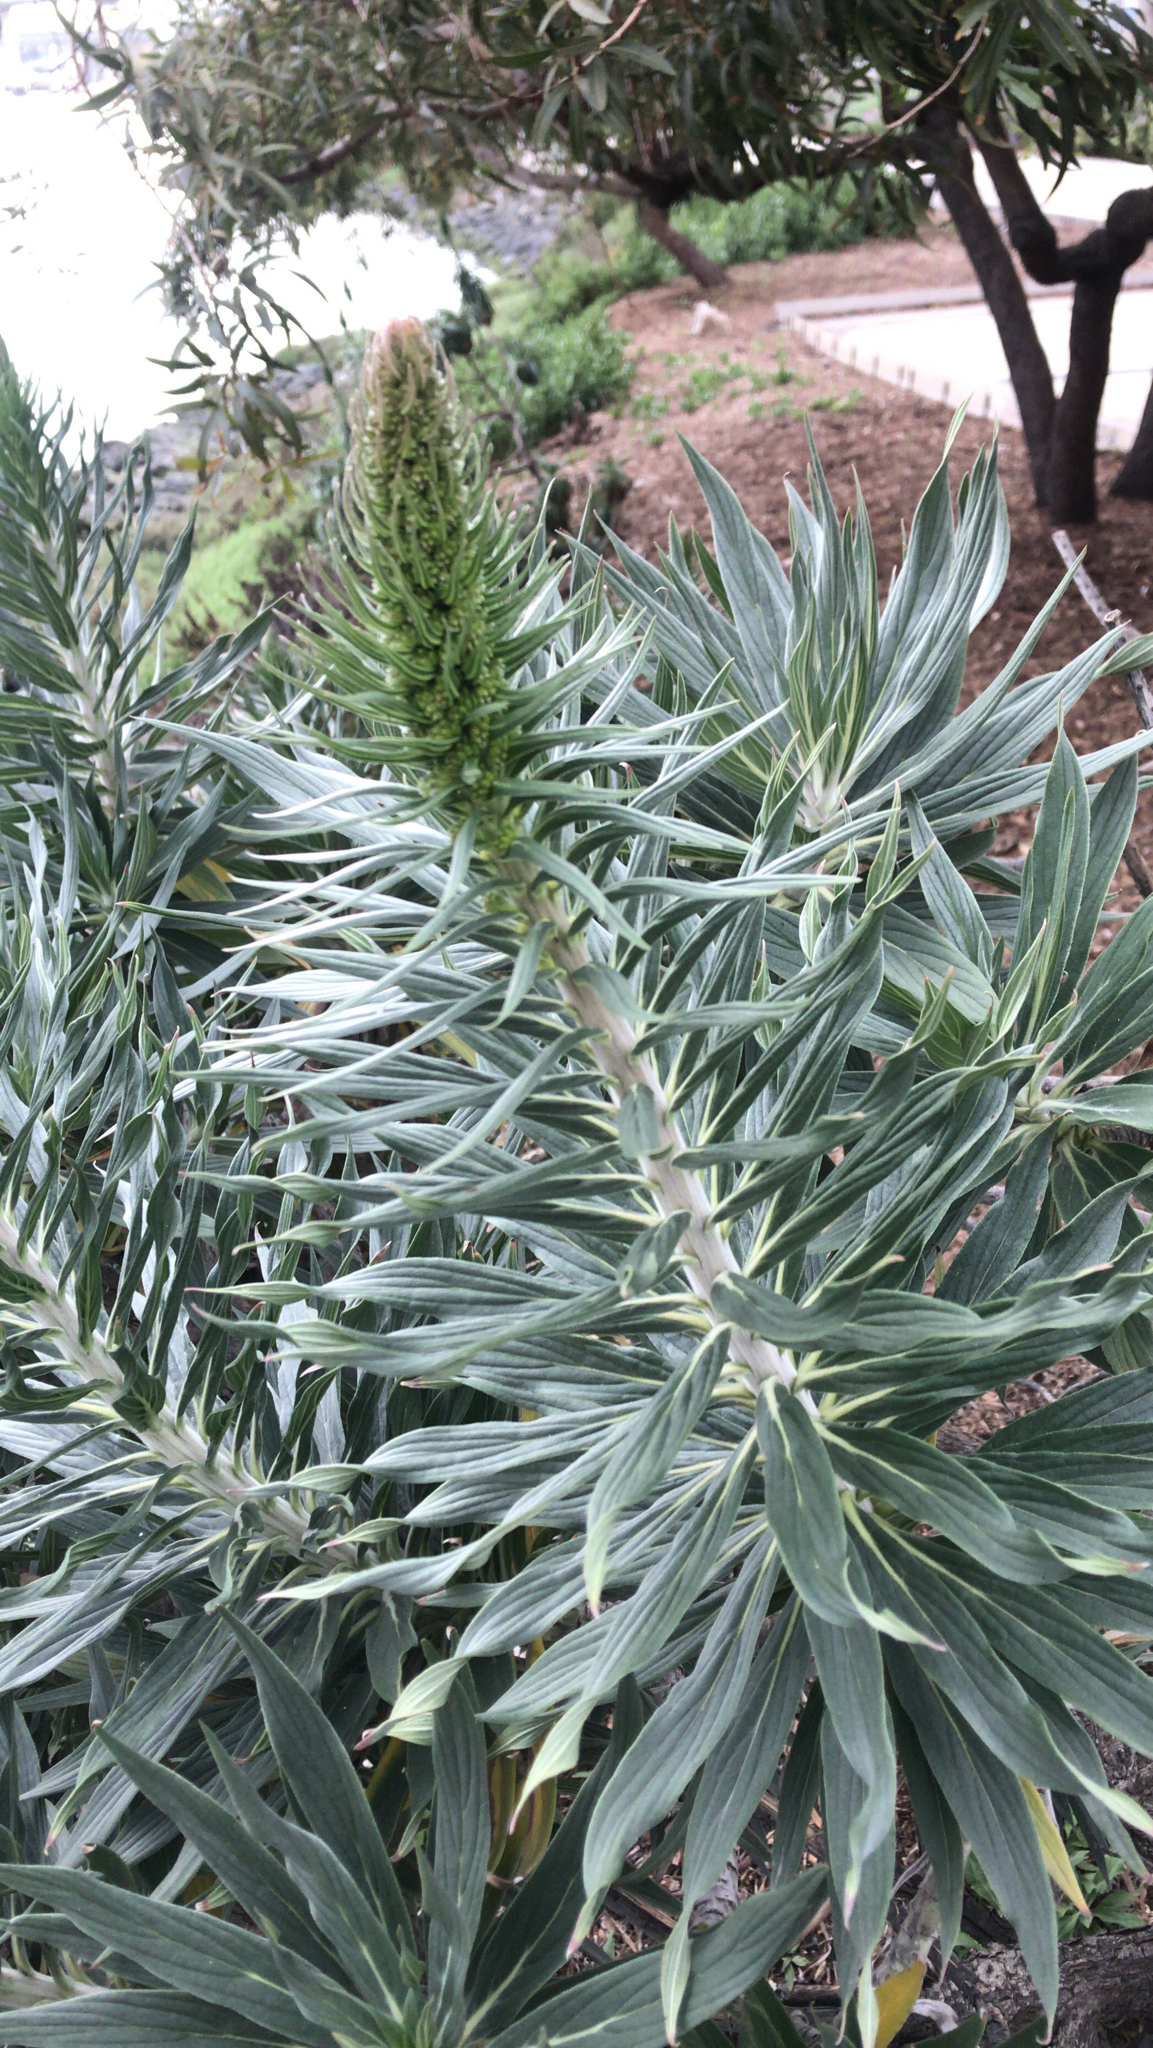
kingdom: Plantae
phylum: Tracheophyta
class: Magnoliopsida
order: Boraginales
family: Boraginaceae
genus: Echium
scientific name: Echium candicans
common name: Pride of madeira
